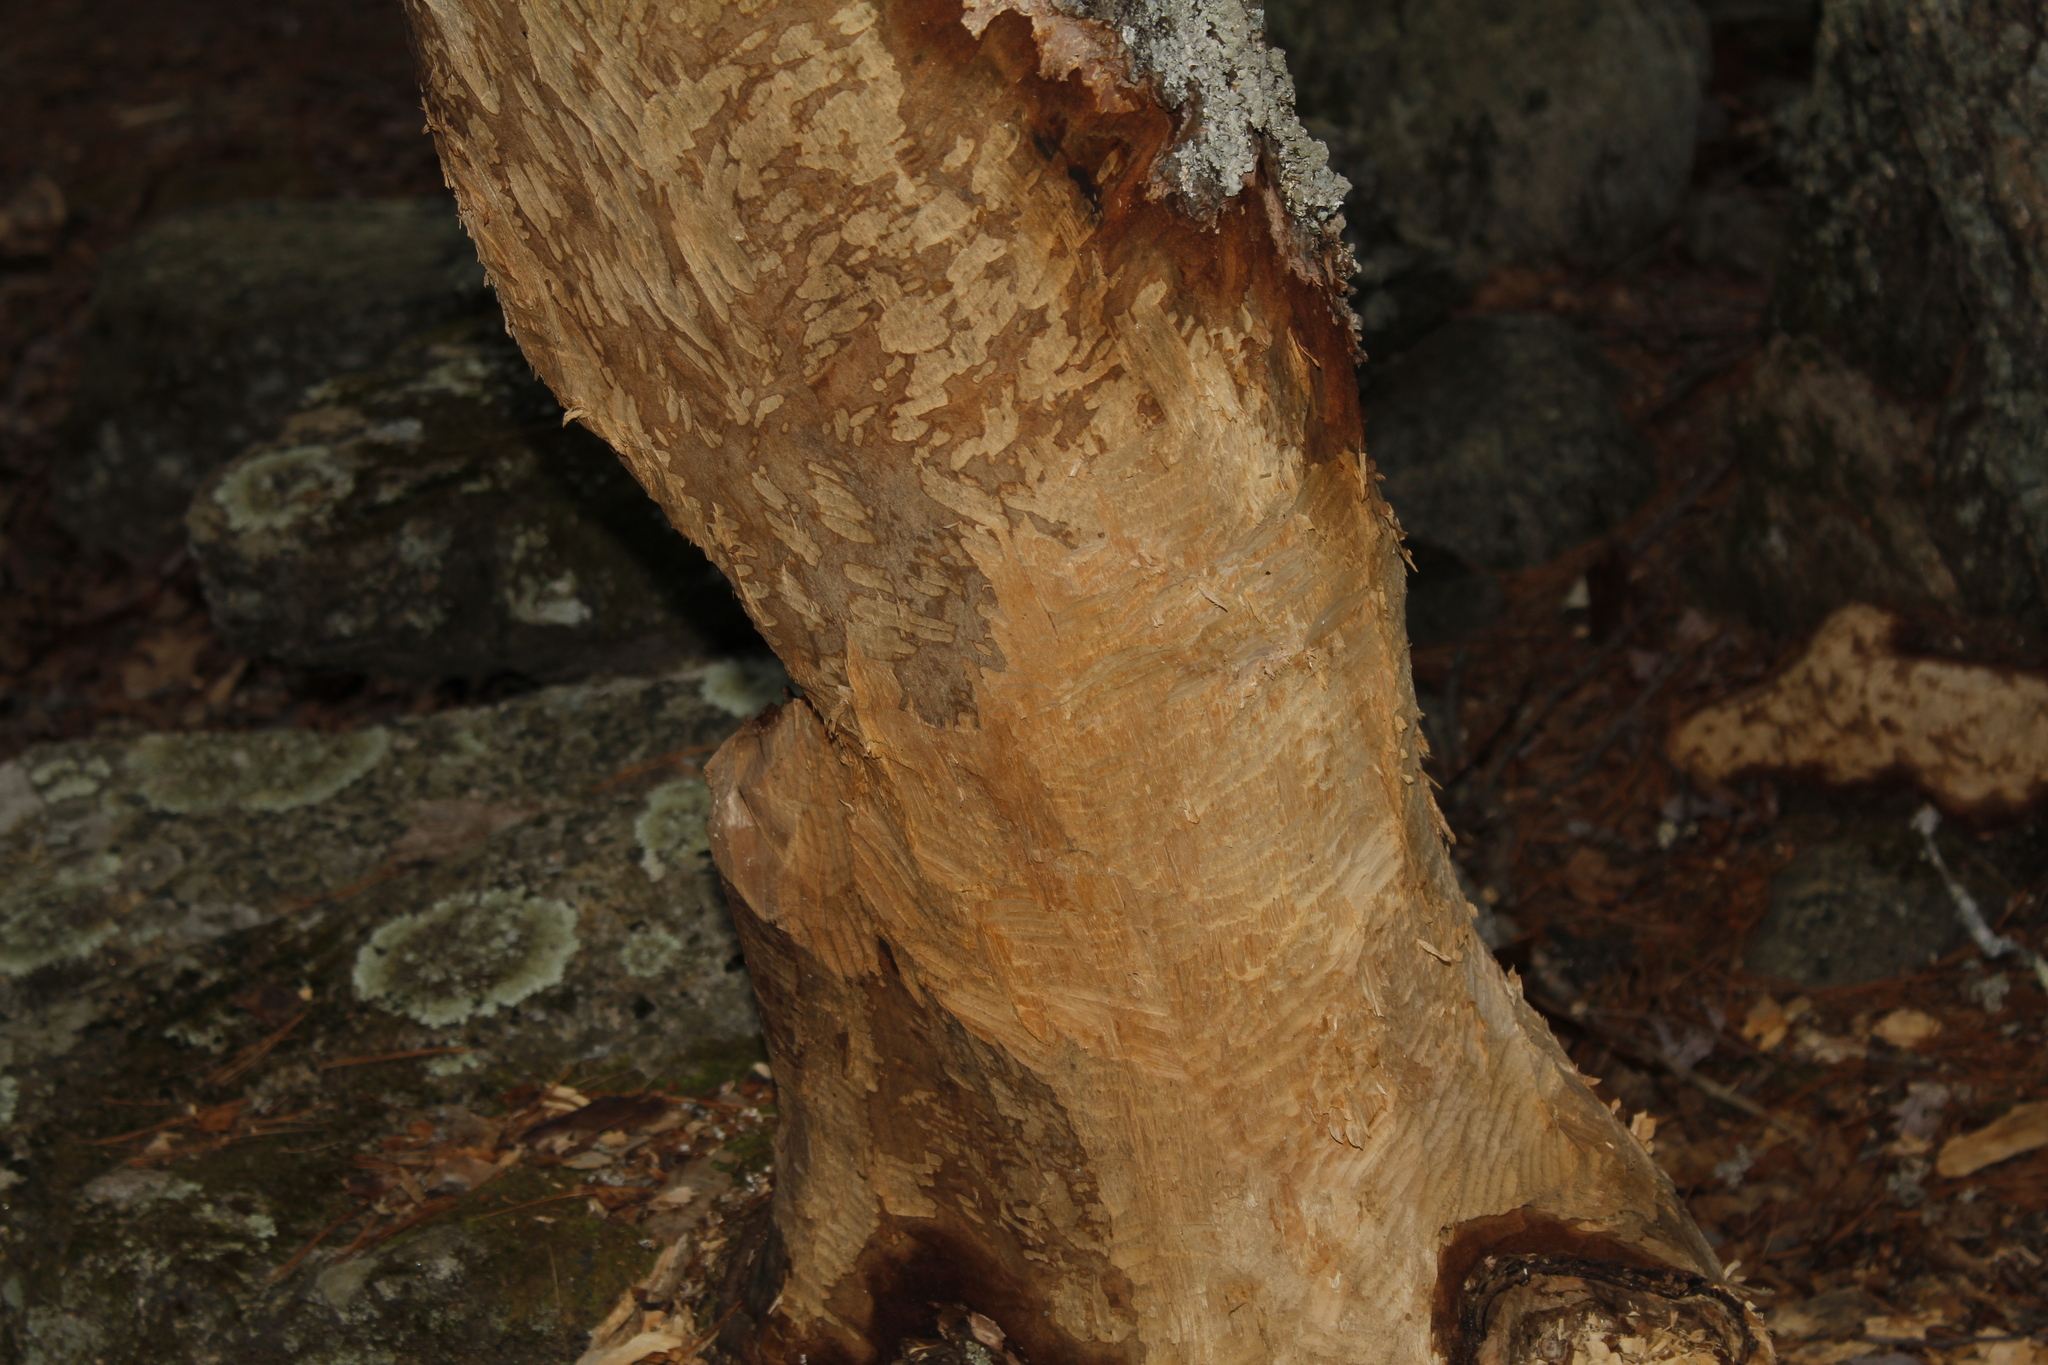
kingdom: Animalia
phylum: Chordata
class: Mammalia
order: Rodentia
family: Castoridae
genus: Castor
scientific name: Castor canadensis
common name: American beaver
